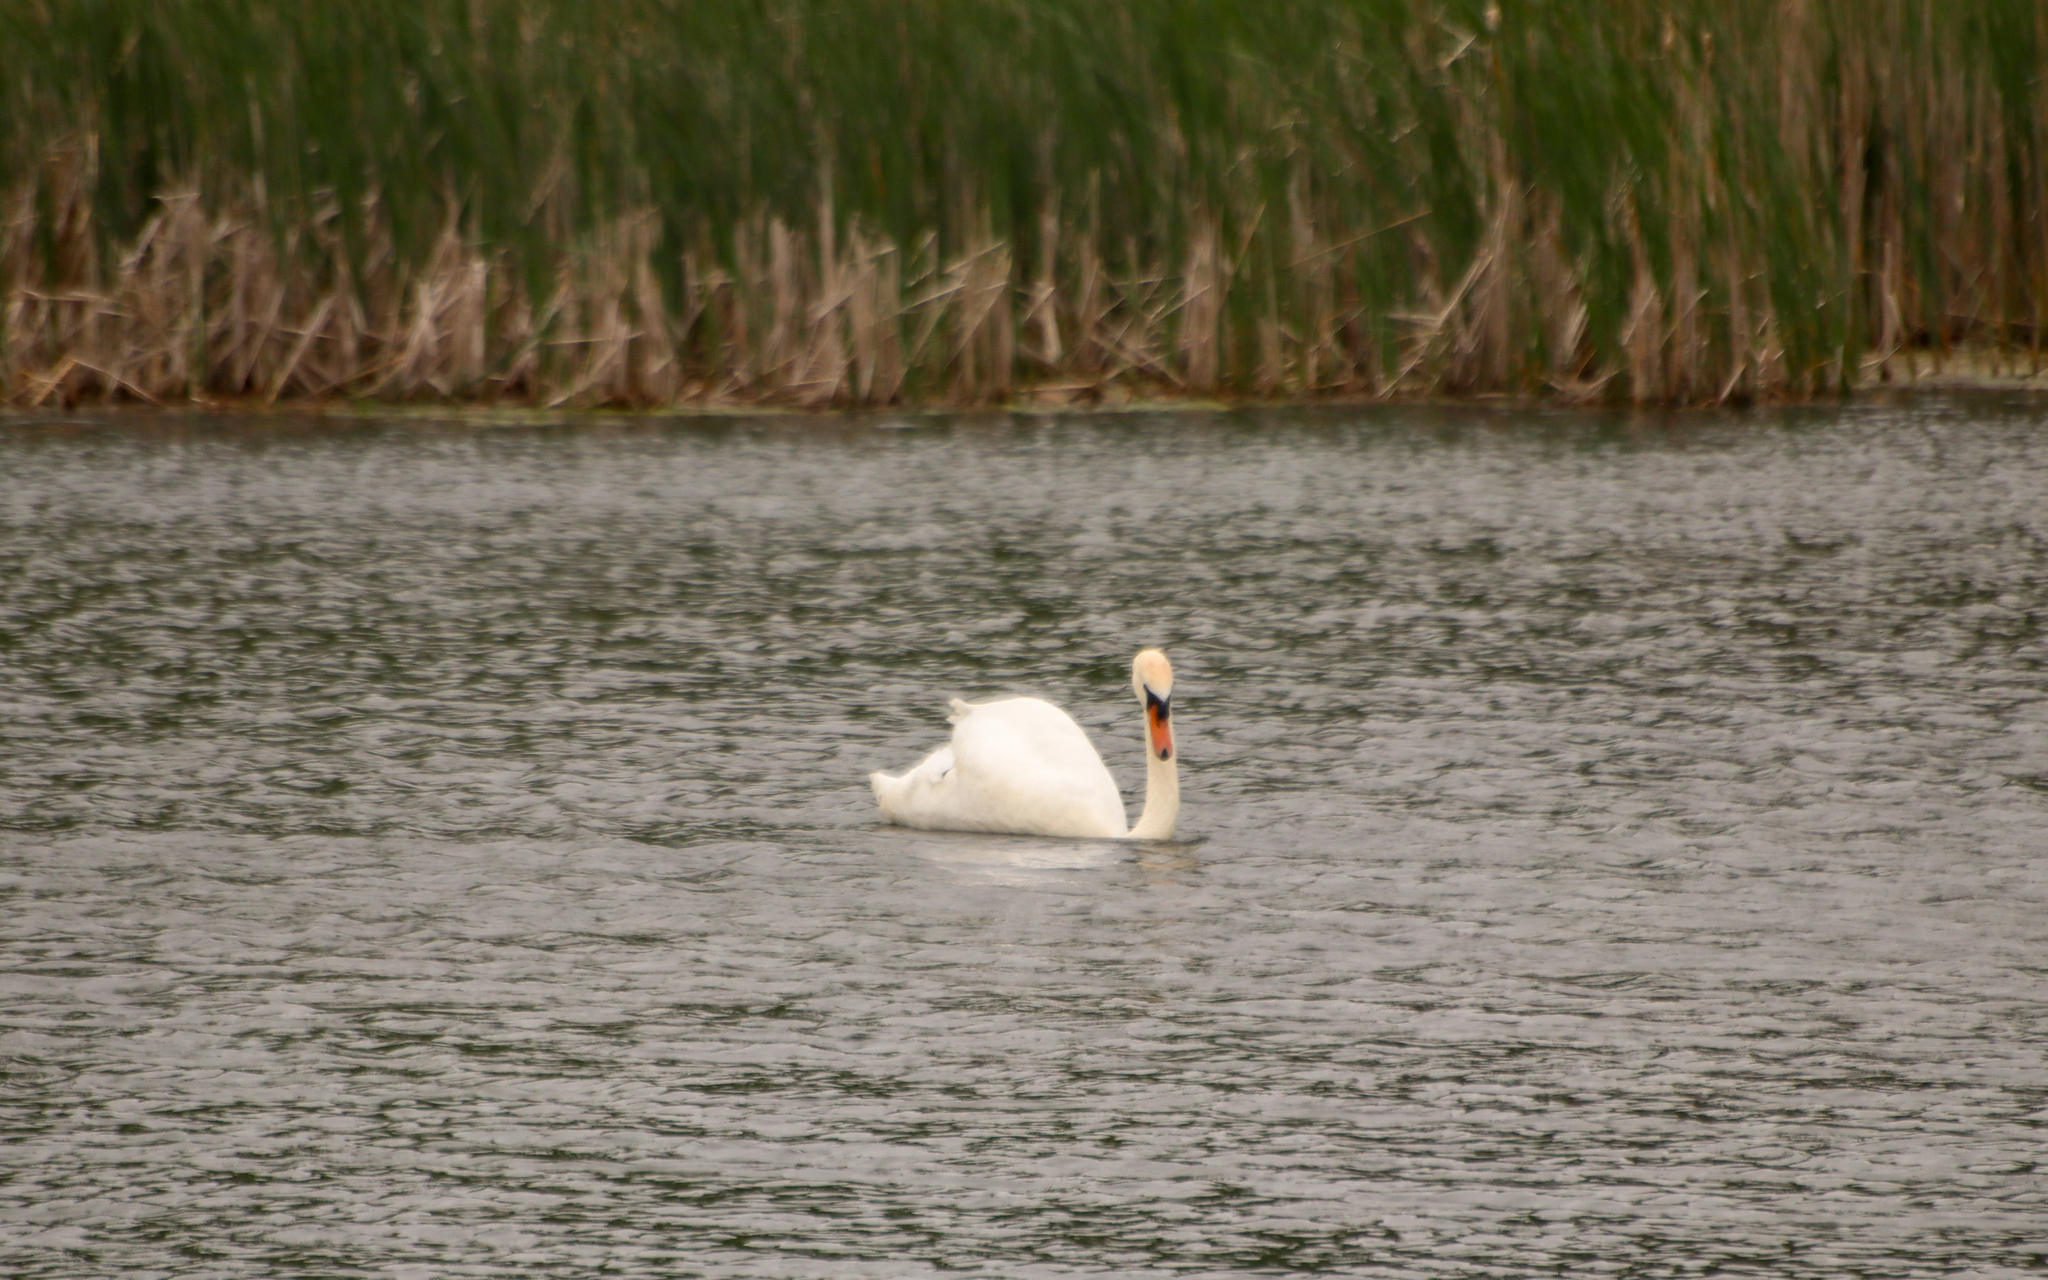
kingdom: Animalia
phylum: Chordata
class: Aves
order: Anseriformes
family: Anatidae
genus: Cygnus
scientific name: Cygnus olor
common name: Mute swan
